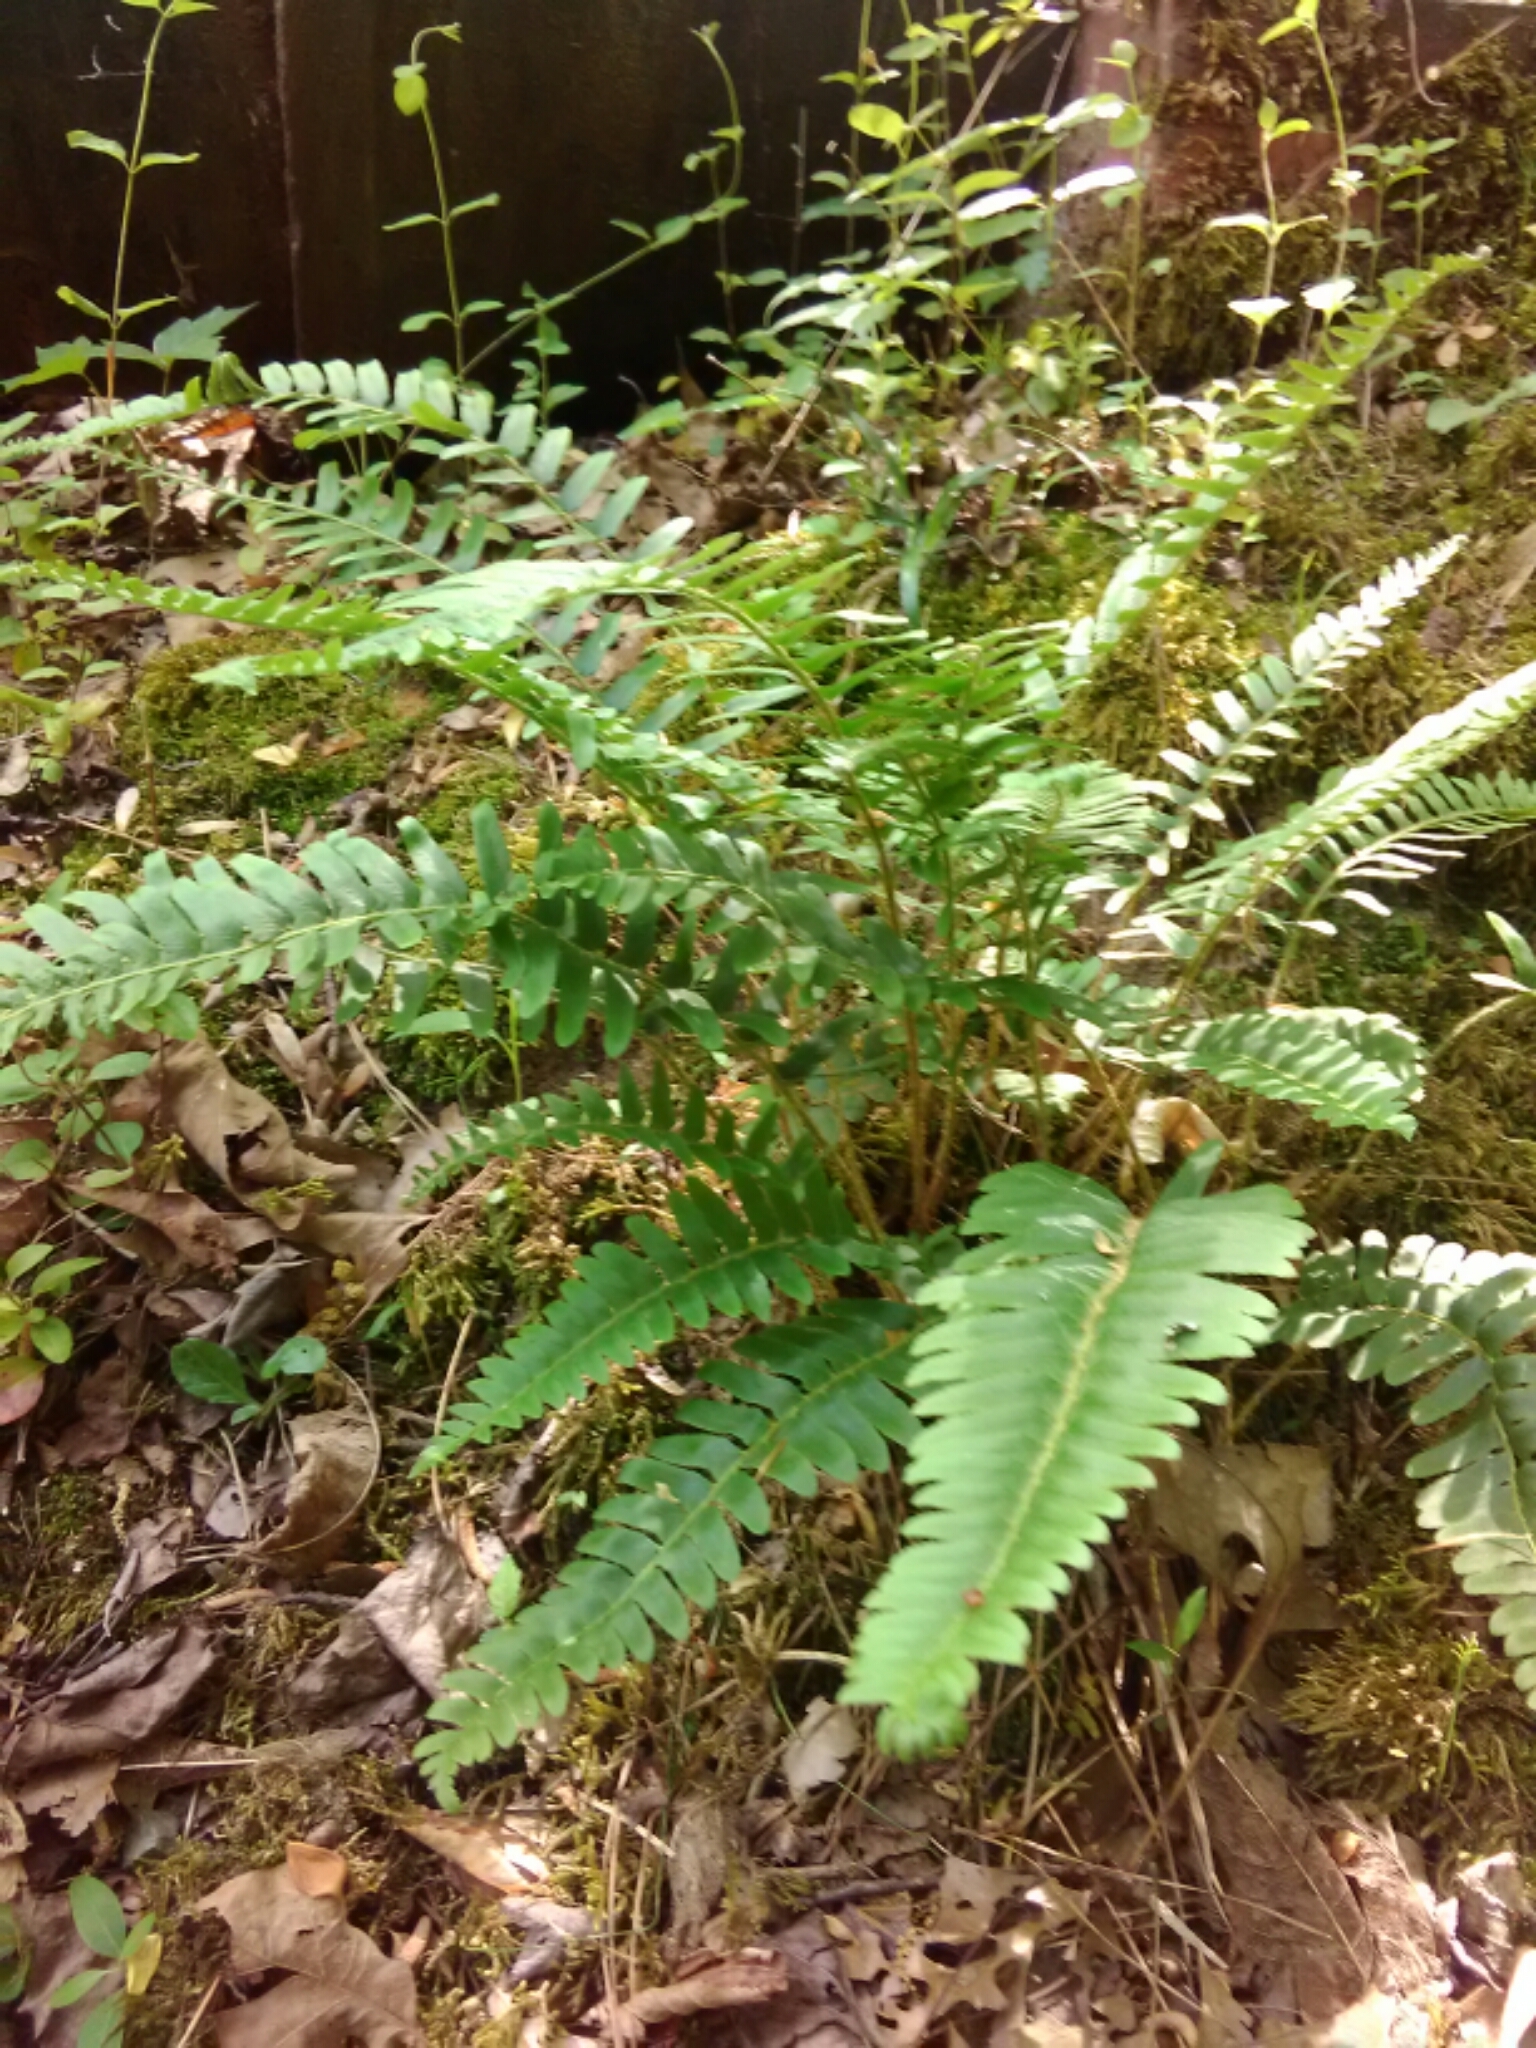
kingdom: Plantae
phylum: Tracheophyta
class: Polypodiopsida
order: Polypodiales
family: Dryopteridaceae
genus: Polystichum
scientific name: Polystichum acrostichoides
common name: Christmas fern
